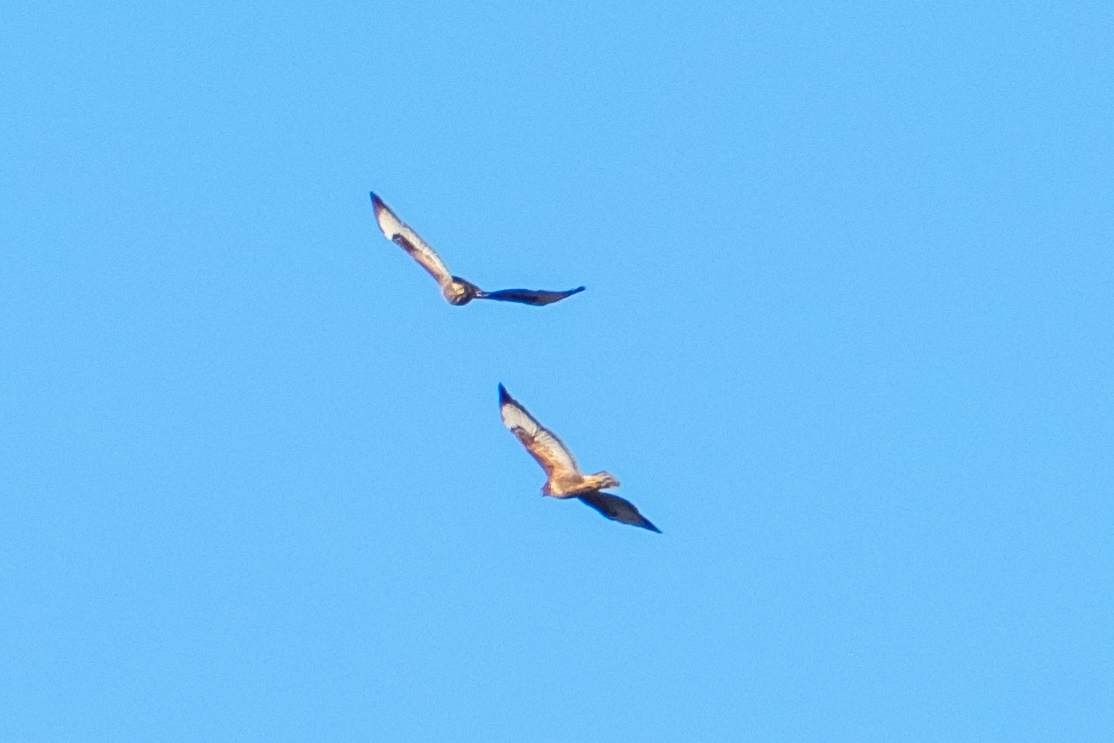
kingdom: Animalia
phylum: Chordata
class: Aves
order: Accipitriformes
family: Accipitridae
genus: Buteo
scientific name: Buteo buteo
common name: Common buzzard
